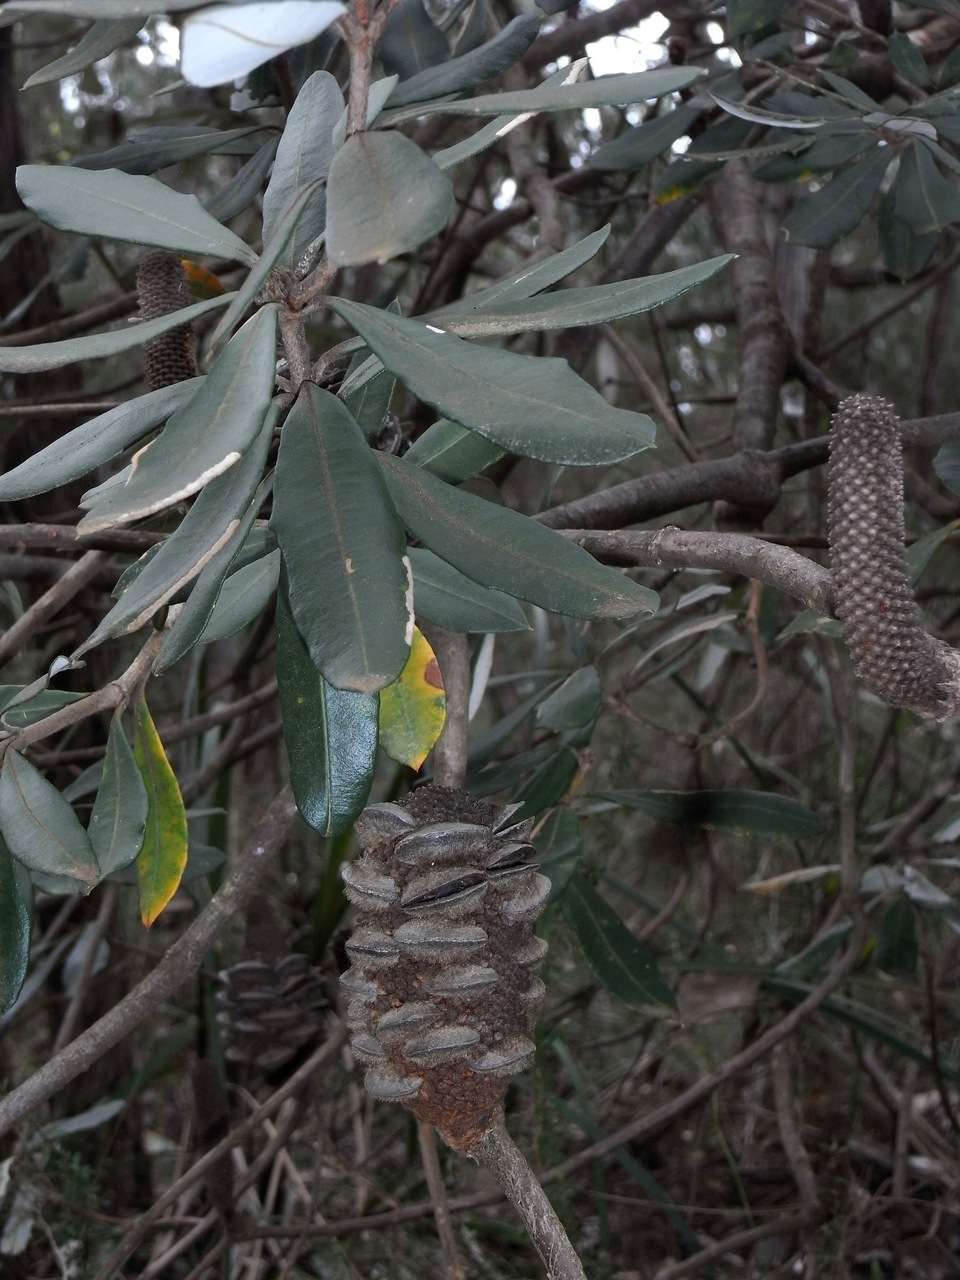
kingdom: Plantae
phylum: Tracheophyta
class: Magnoliopsida
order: Proteales
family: Proteaceae
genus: Banksia
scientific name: Banksia saxicola
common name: Grampians banksia
